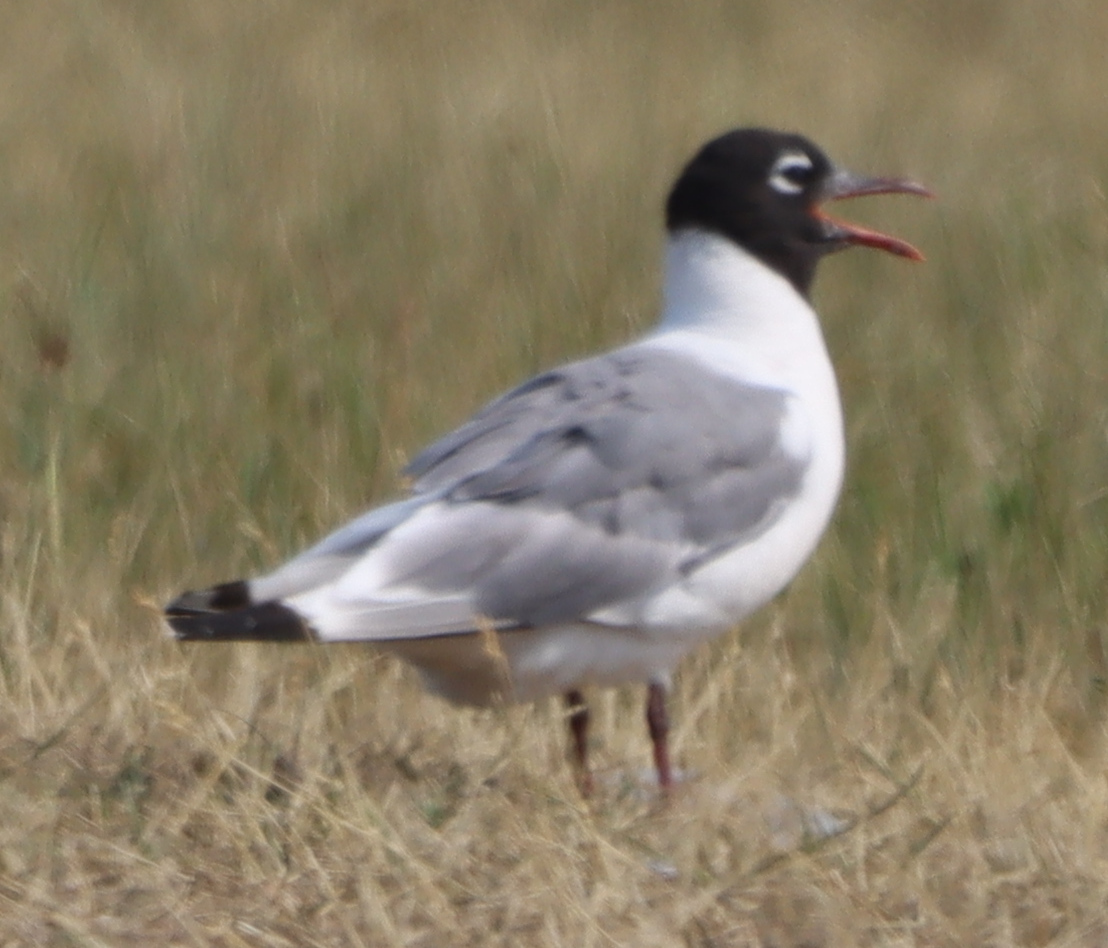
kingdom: Animalia
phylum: Chordata
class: Aves
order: Charadriiformes
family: Laridae
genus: Leucophaeus
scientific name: Leucophaeus pipixcan
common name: Franklin's gull
